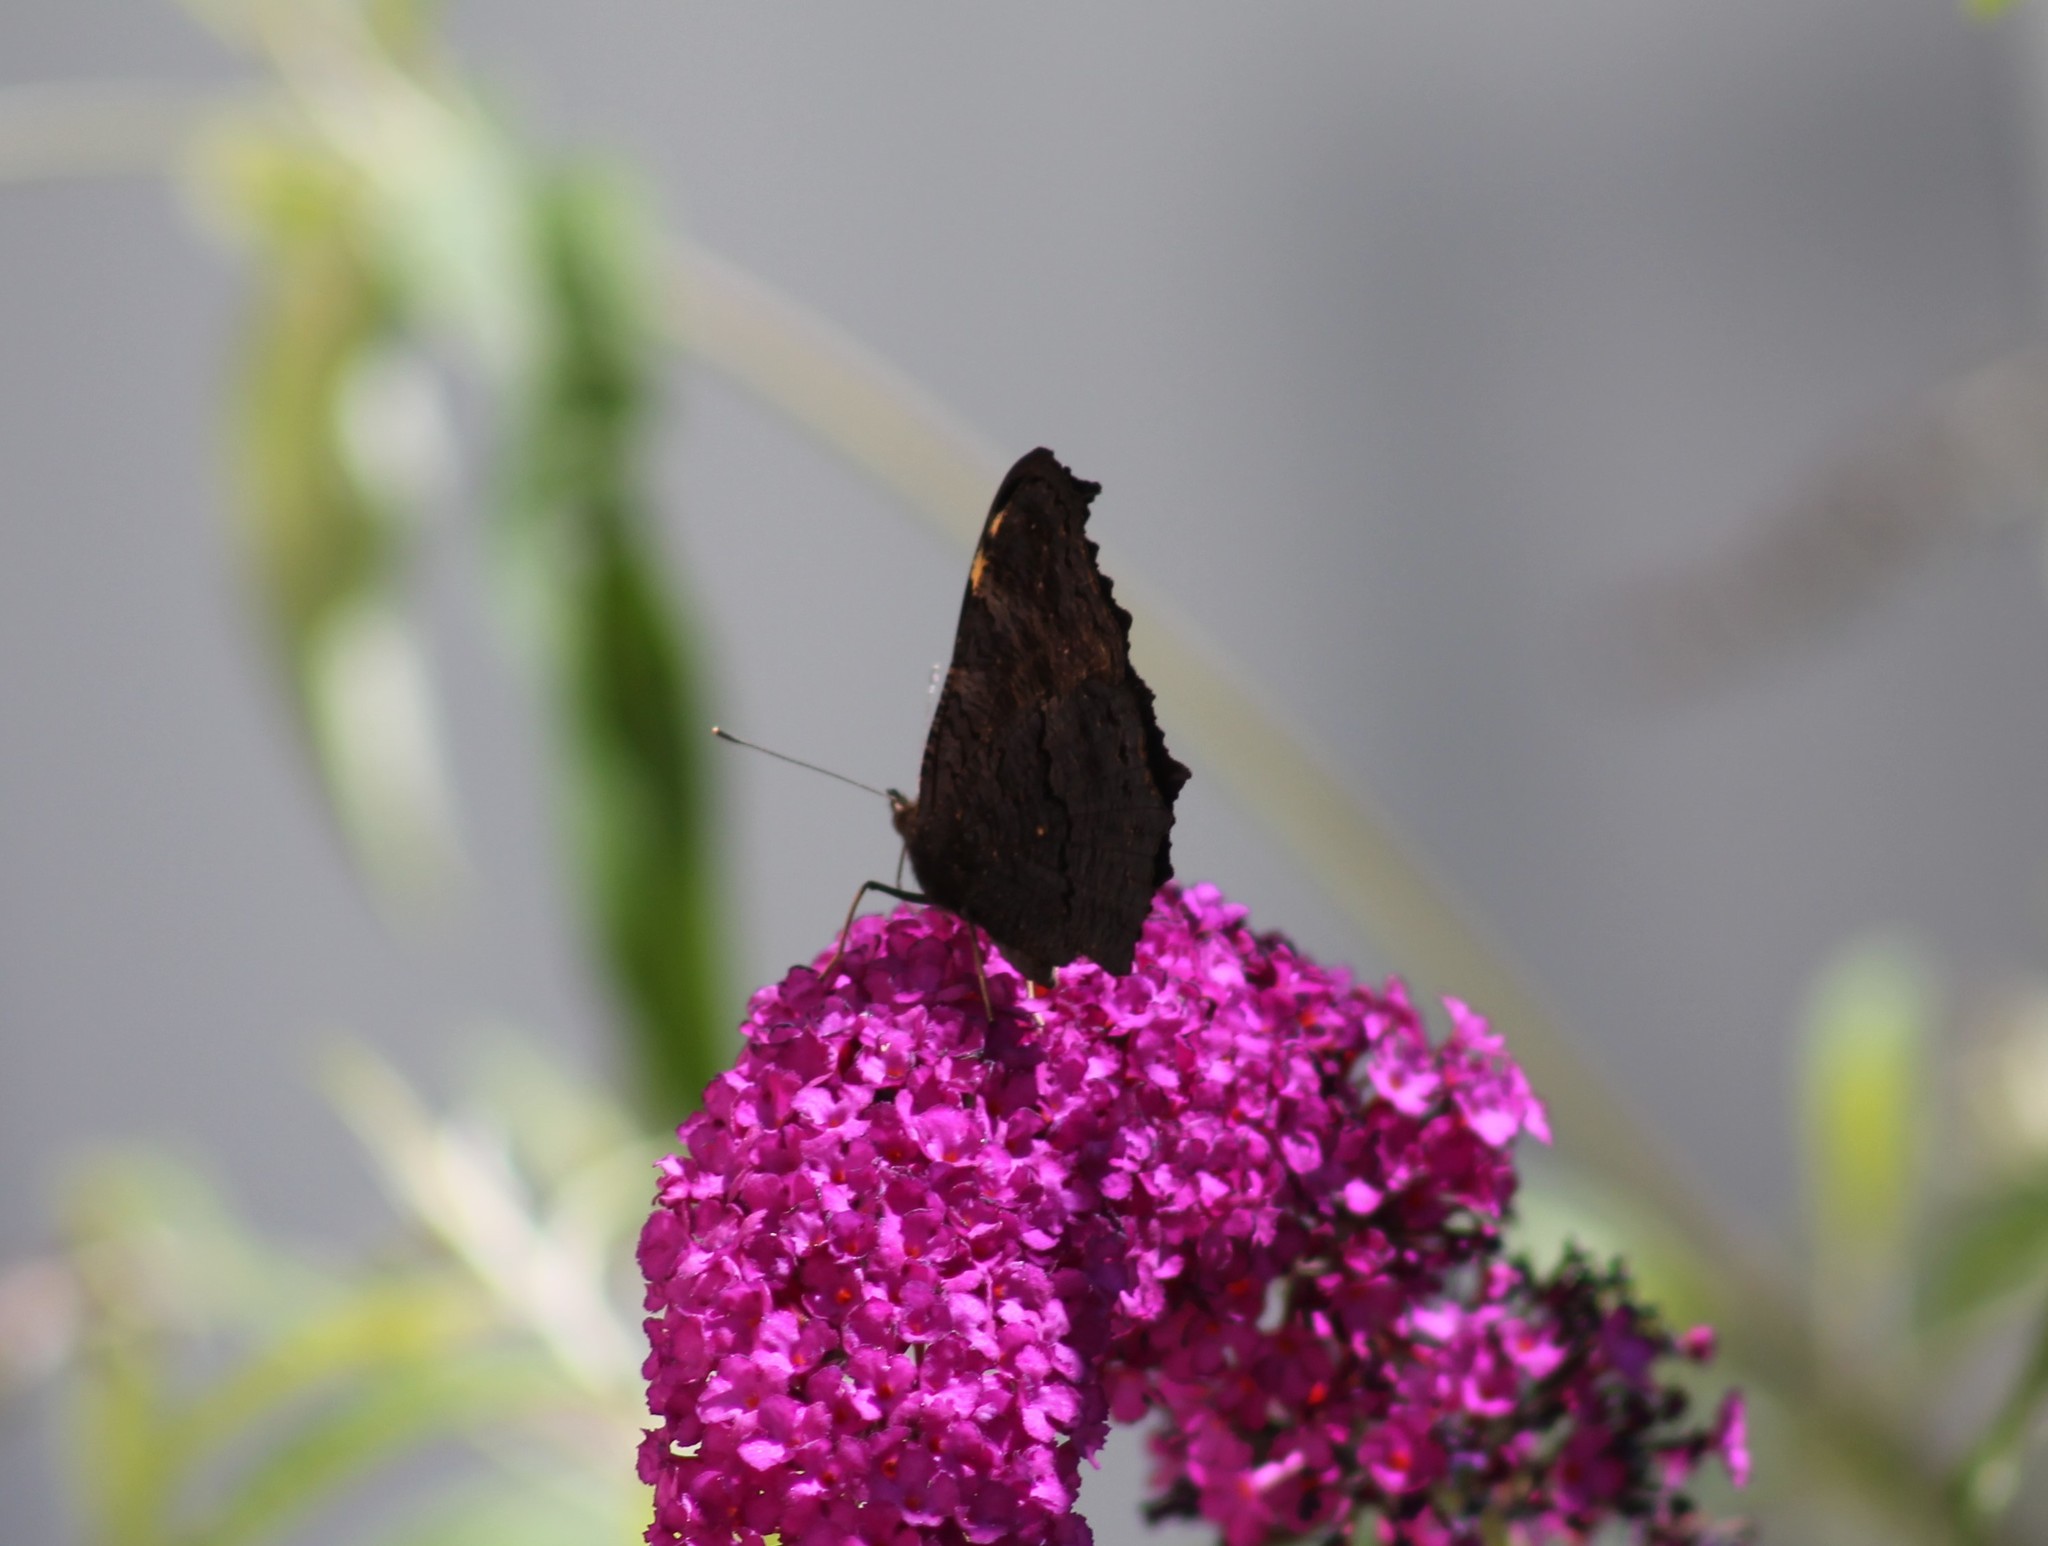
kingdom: Animalia
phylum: Arthropoda
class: Insecta
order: Lepidoptera
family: Nymphalidae
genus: Aglais
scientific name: Aglais io
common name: Peacock
